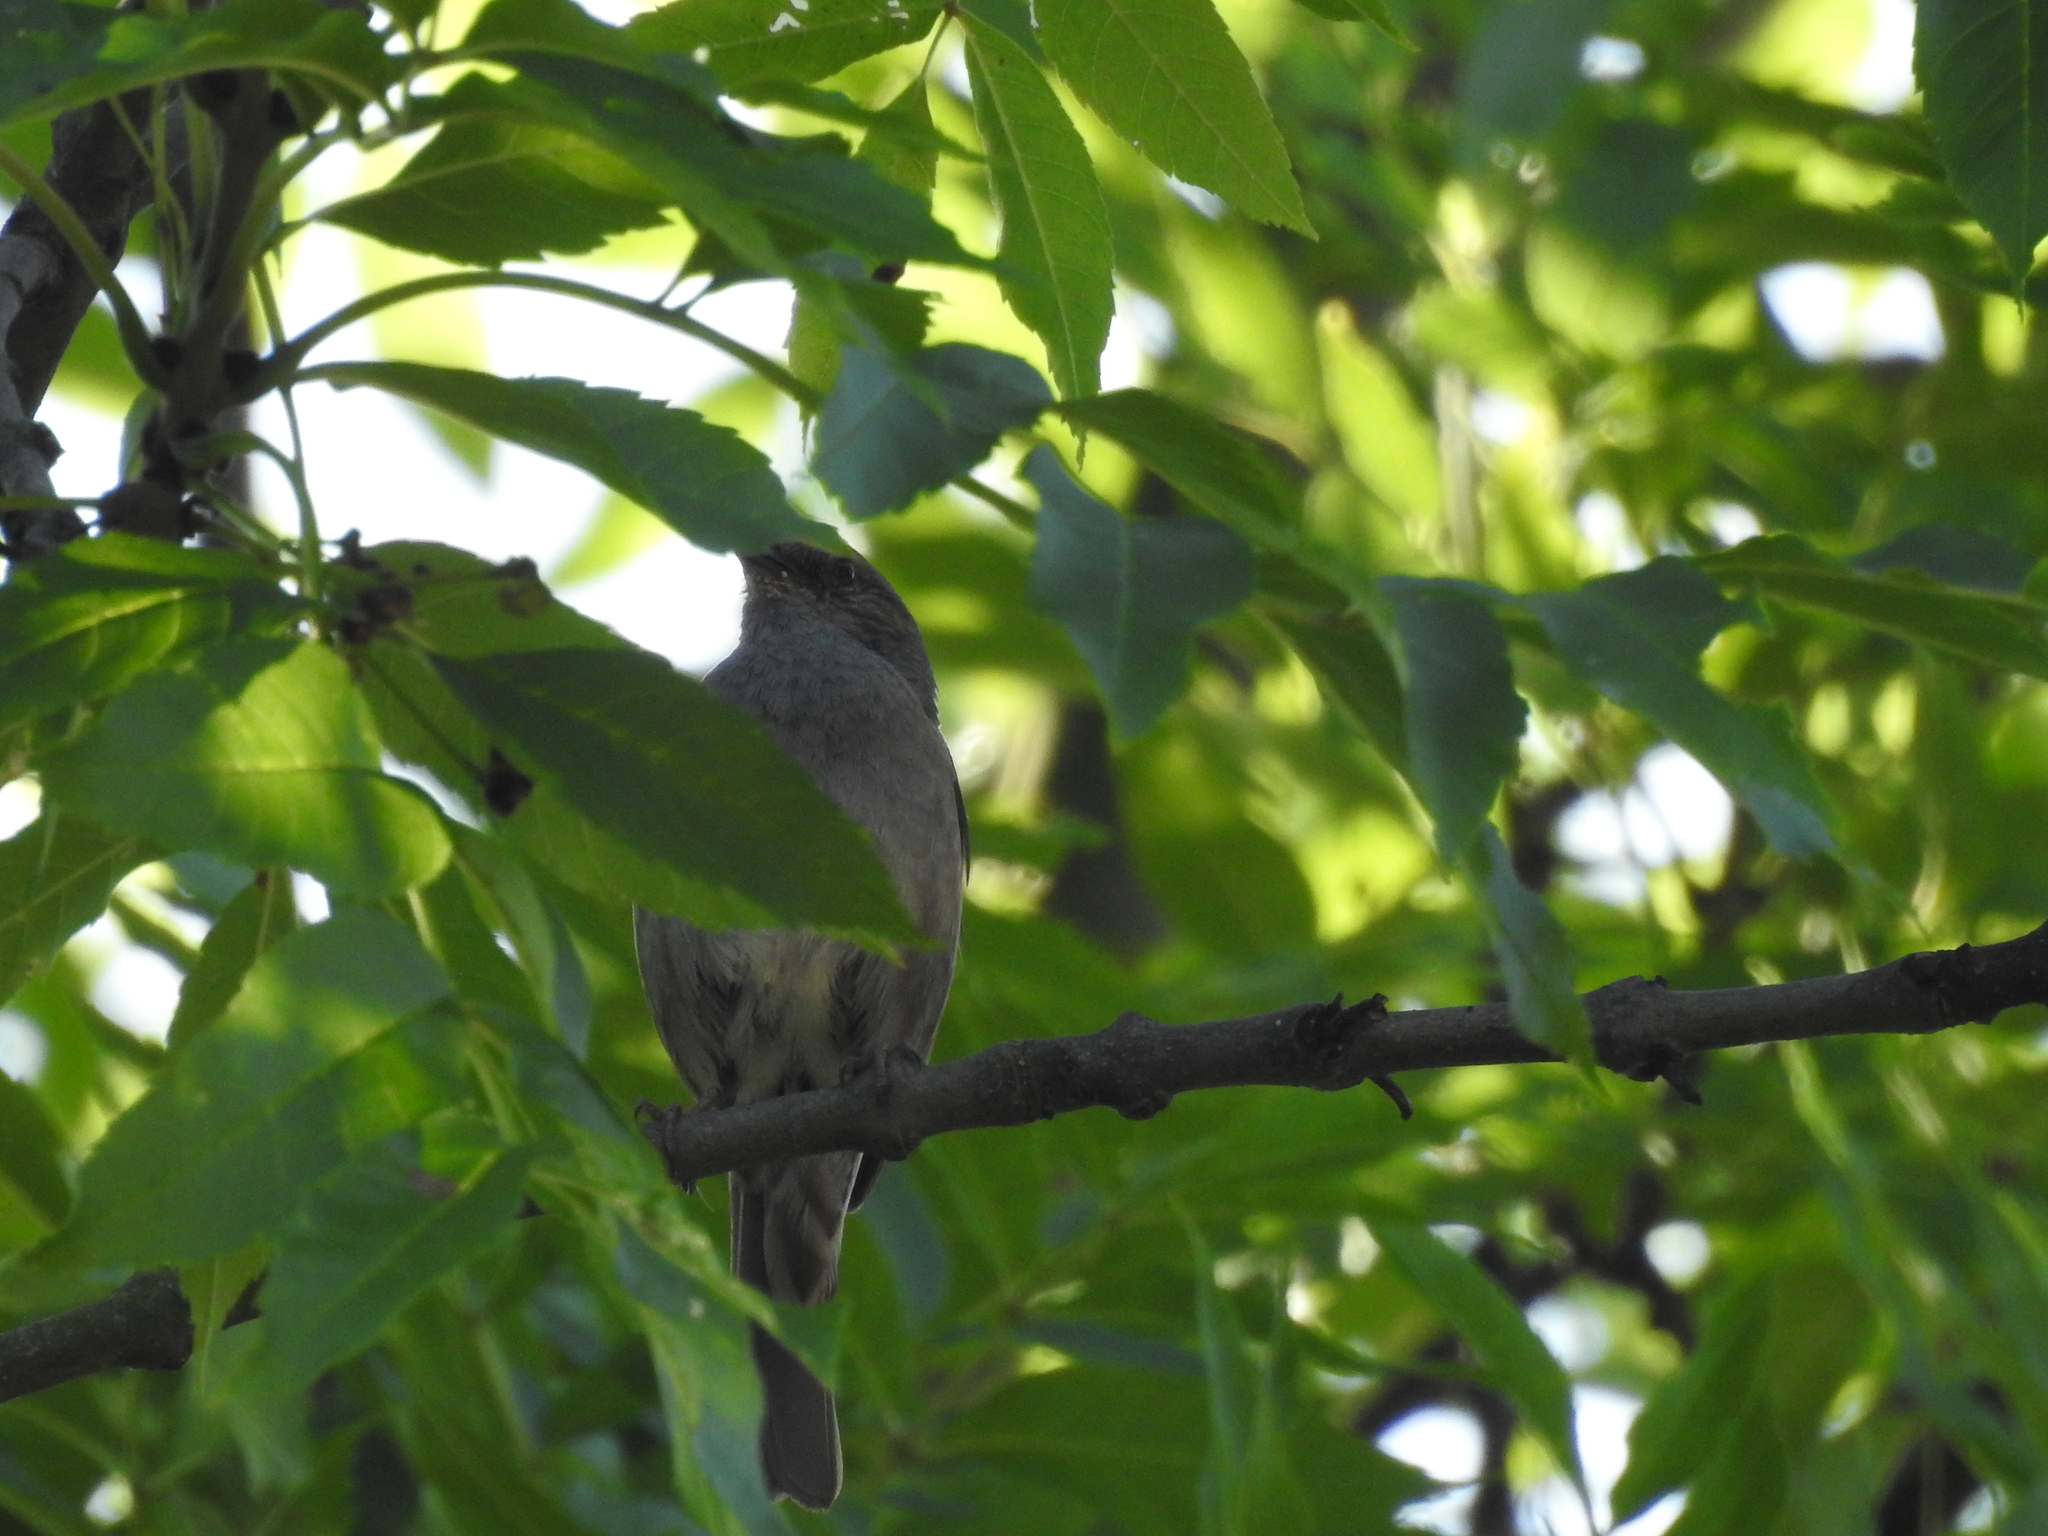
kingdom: Animalia
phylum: Chordata
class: Aves
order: Passeriformes
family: Prunellidae
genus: Prunella
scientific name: Prunella modularis
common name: Dunnock
